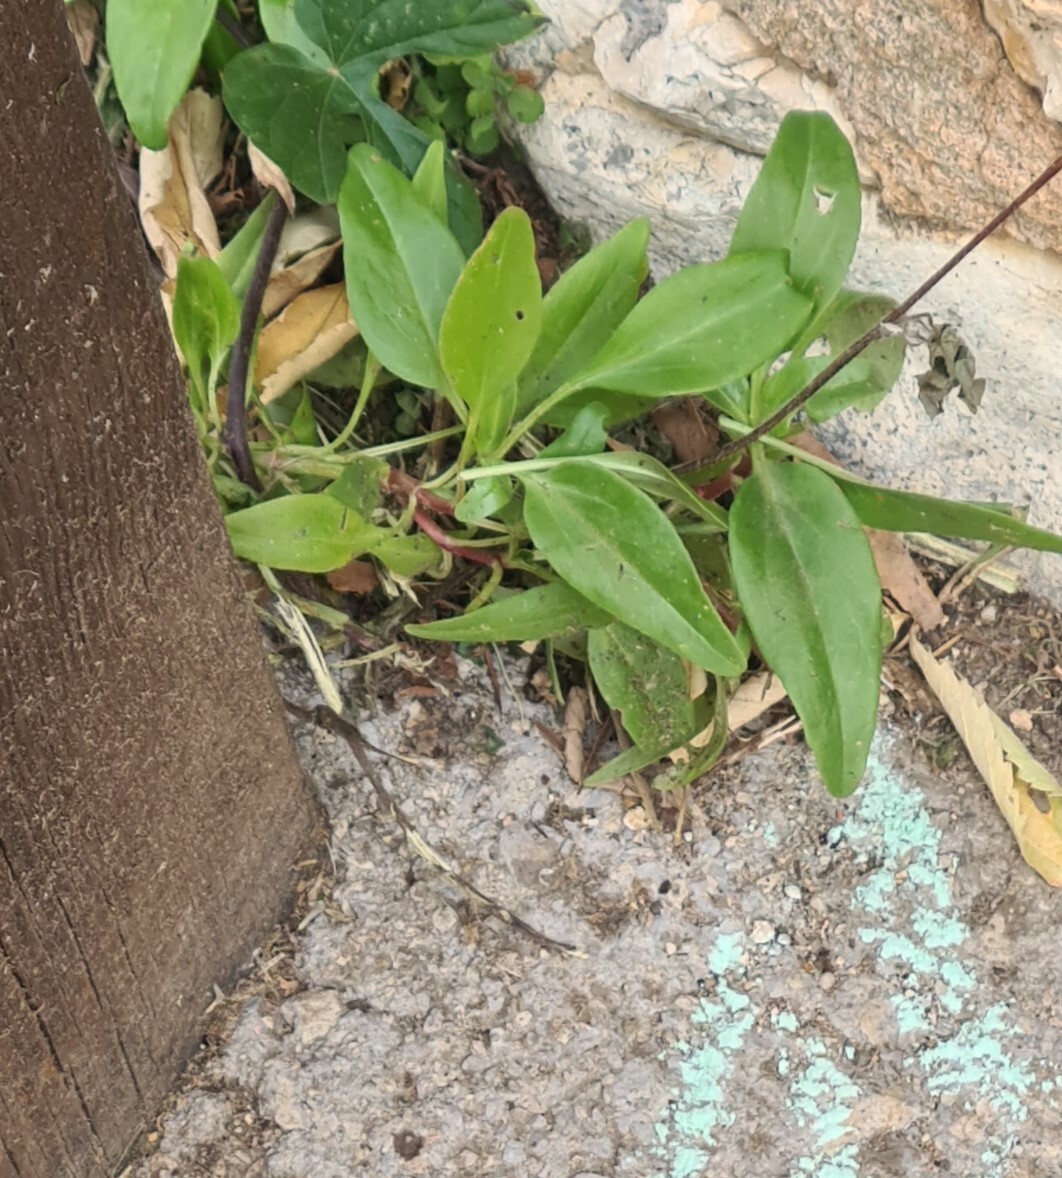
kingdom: Plantae
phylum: Tracheophyta
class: Magnoliopsida
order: Dipsacales
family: Caprifoliaceae
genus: Centranthus
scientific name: Centranthus ruber
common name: Red valerian
